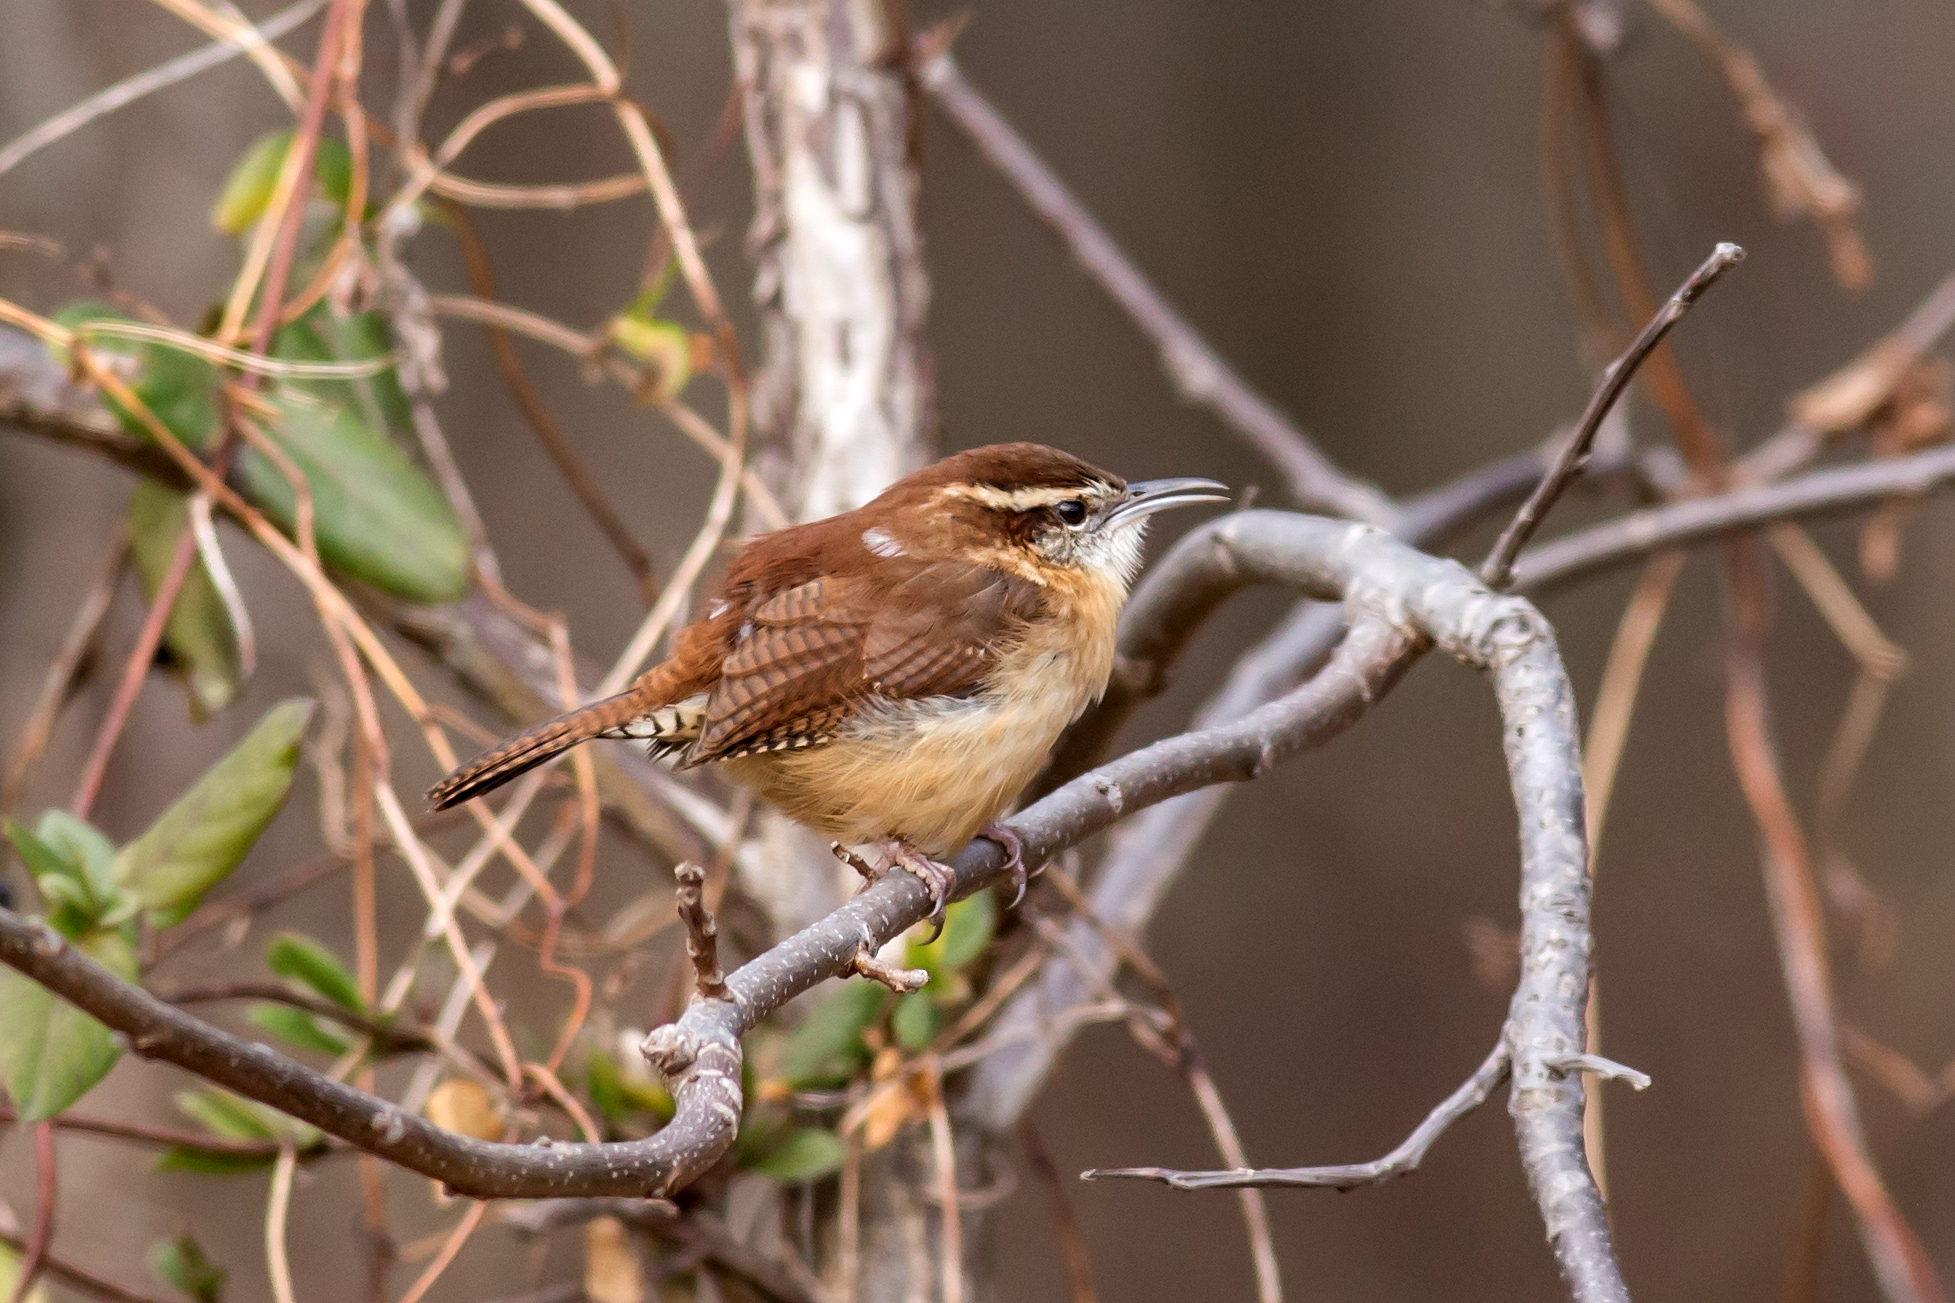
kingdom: Animalia
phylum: Chordata
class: Aves
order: Passeriformes
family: Troglodytidae
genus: Thryothorus
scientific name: Thryothorus ludovicianus
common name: Carolina wren
